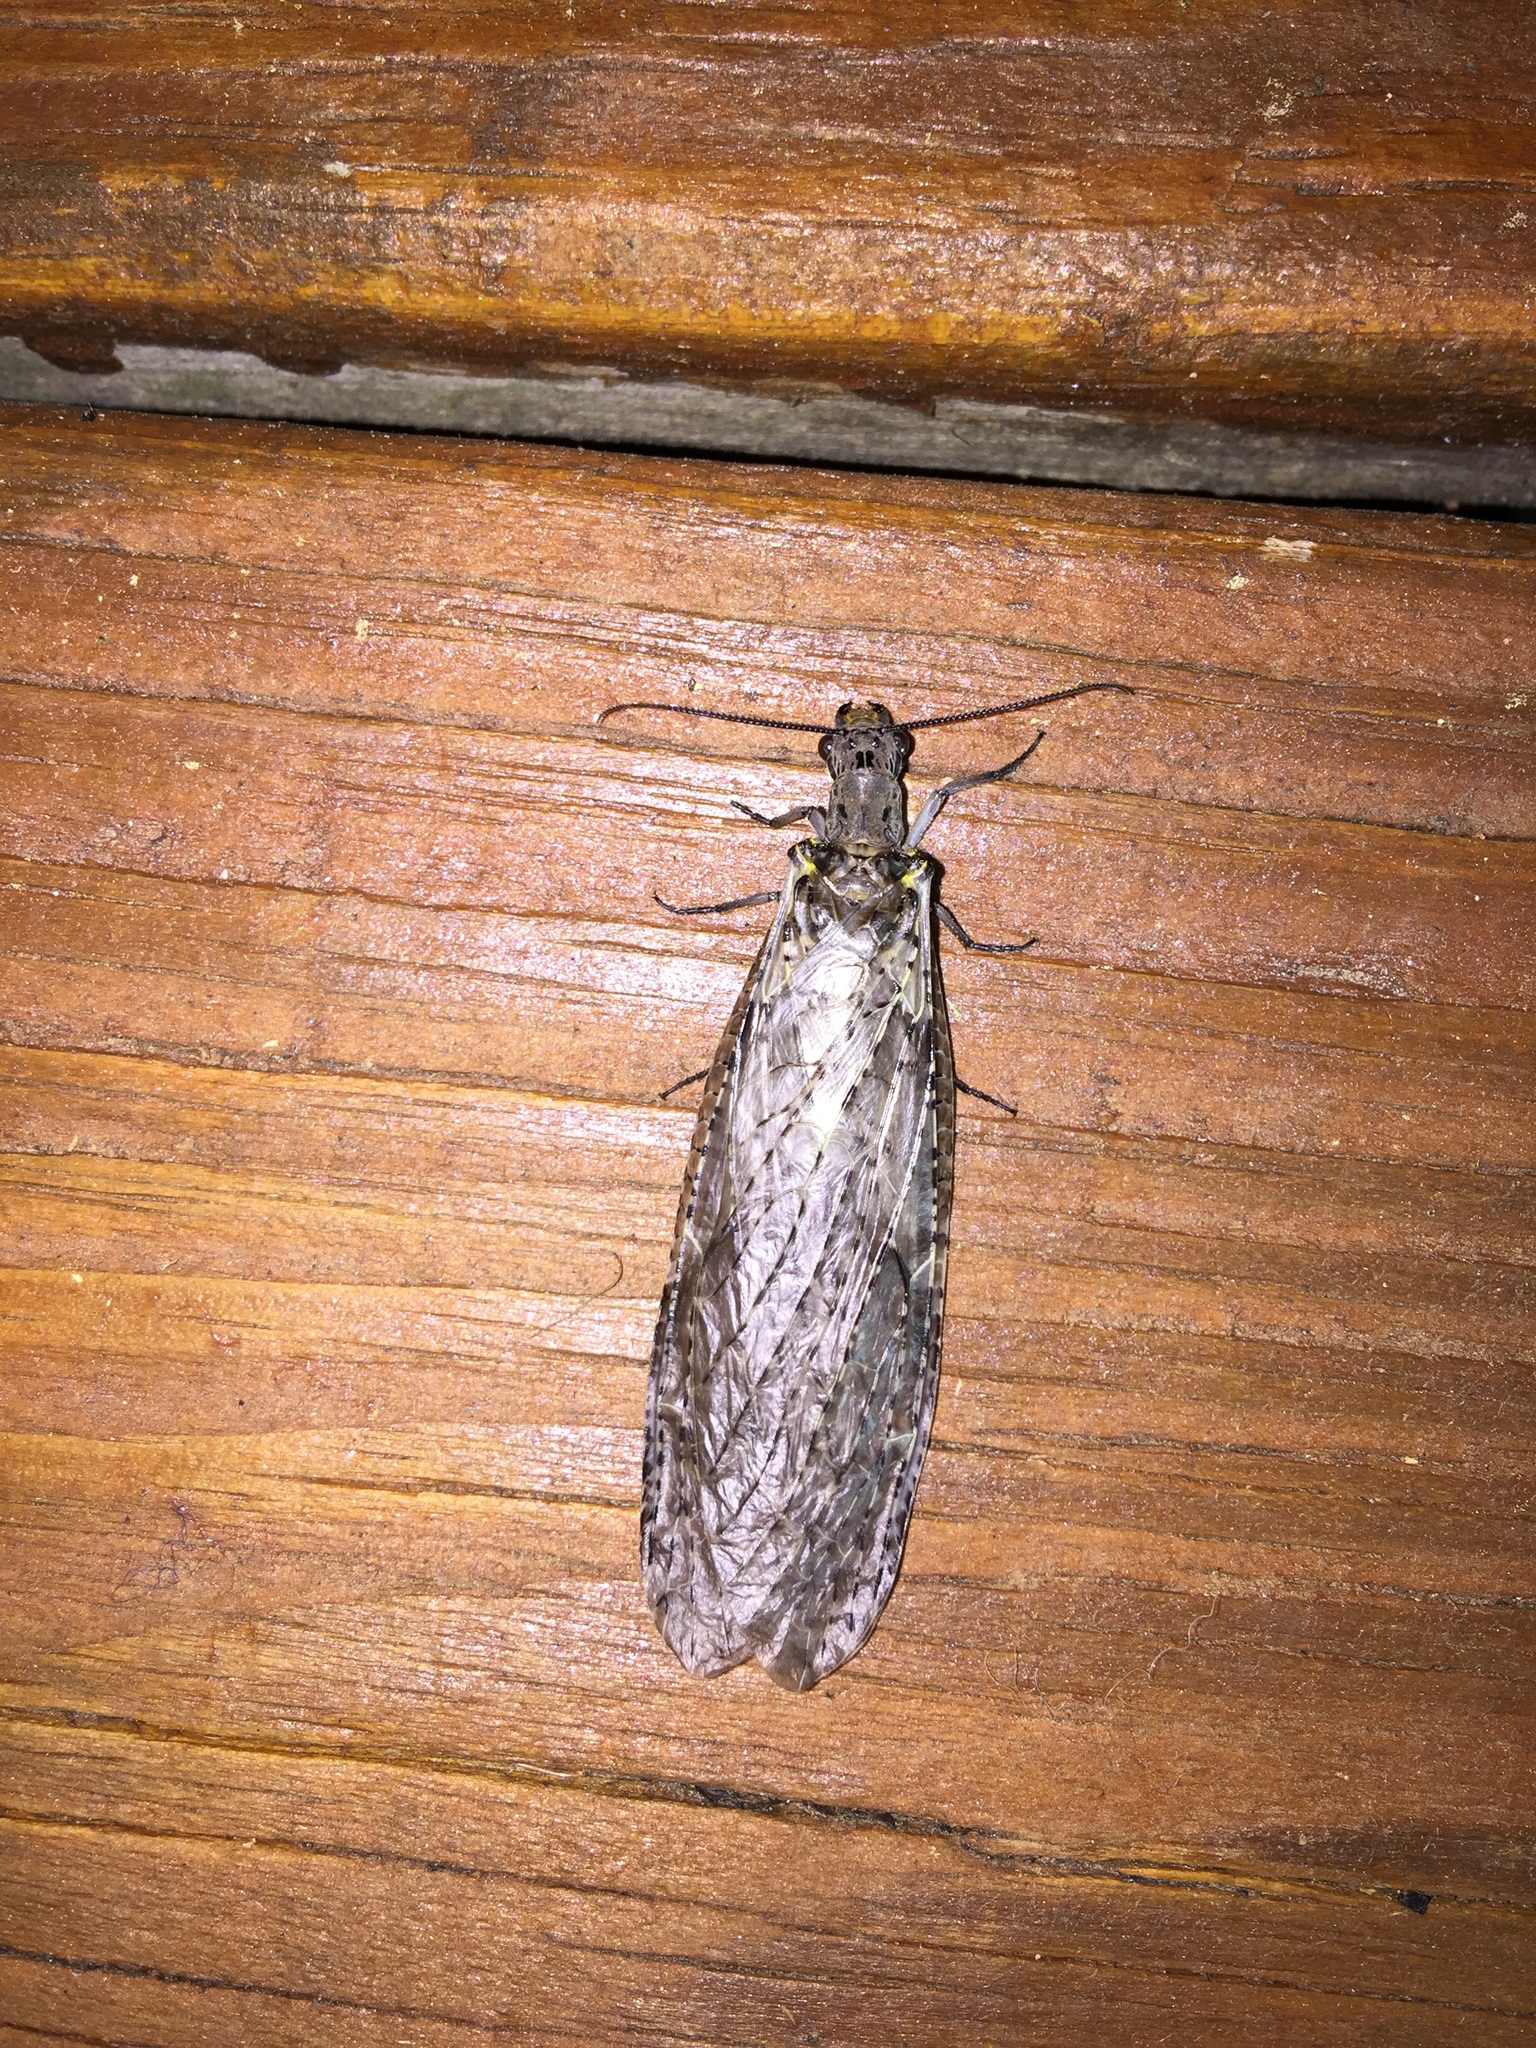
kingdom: Animalia
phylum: Arthropoda
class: Insecta
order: Megaloptera
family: Corydalidae
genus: Chauliodes
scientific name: Chauliodes rastricornis
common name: Spring fishfly
